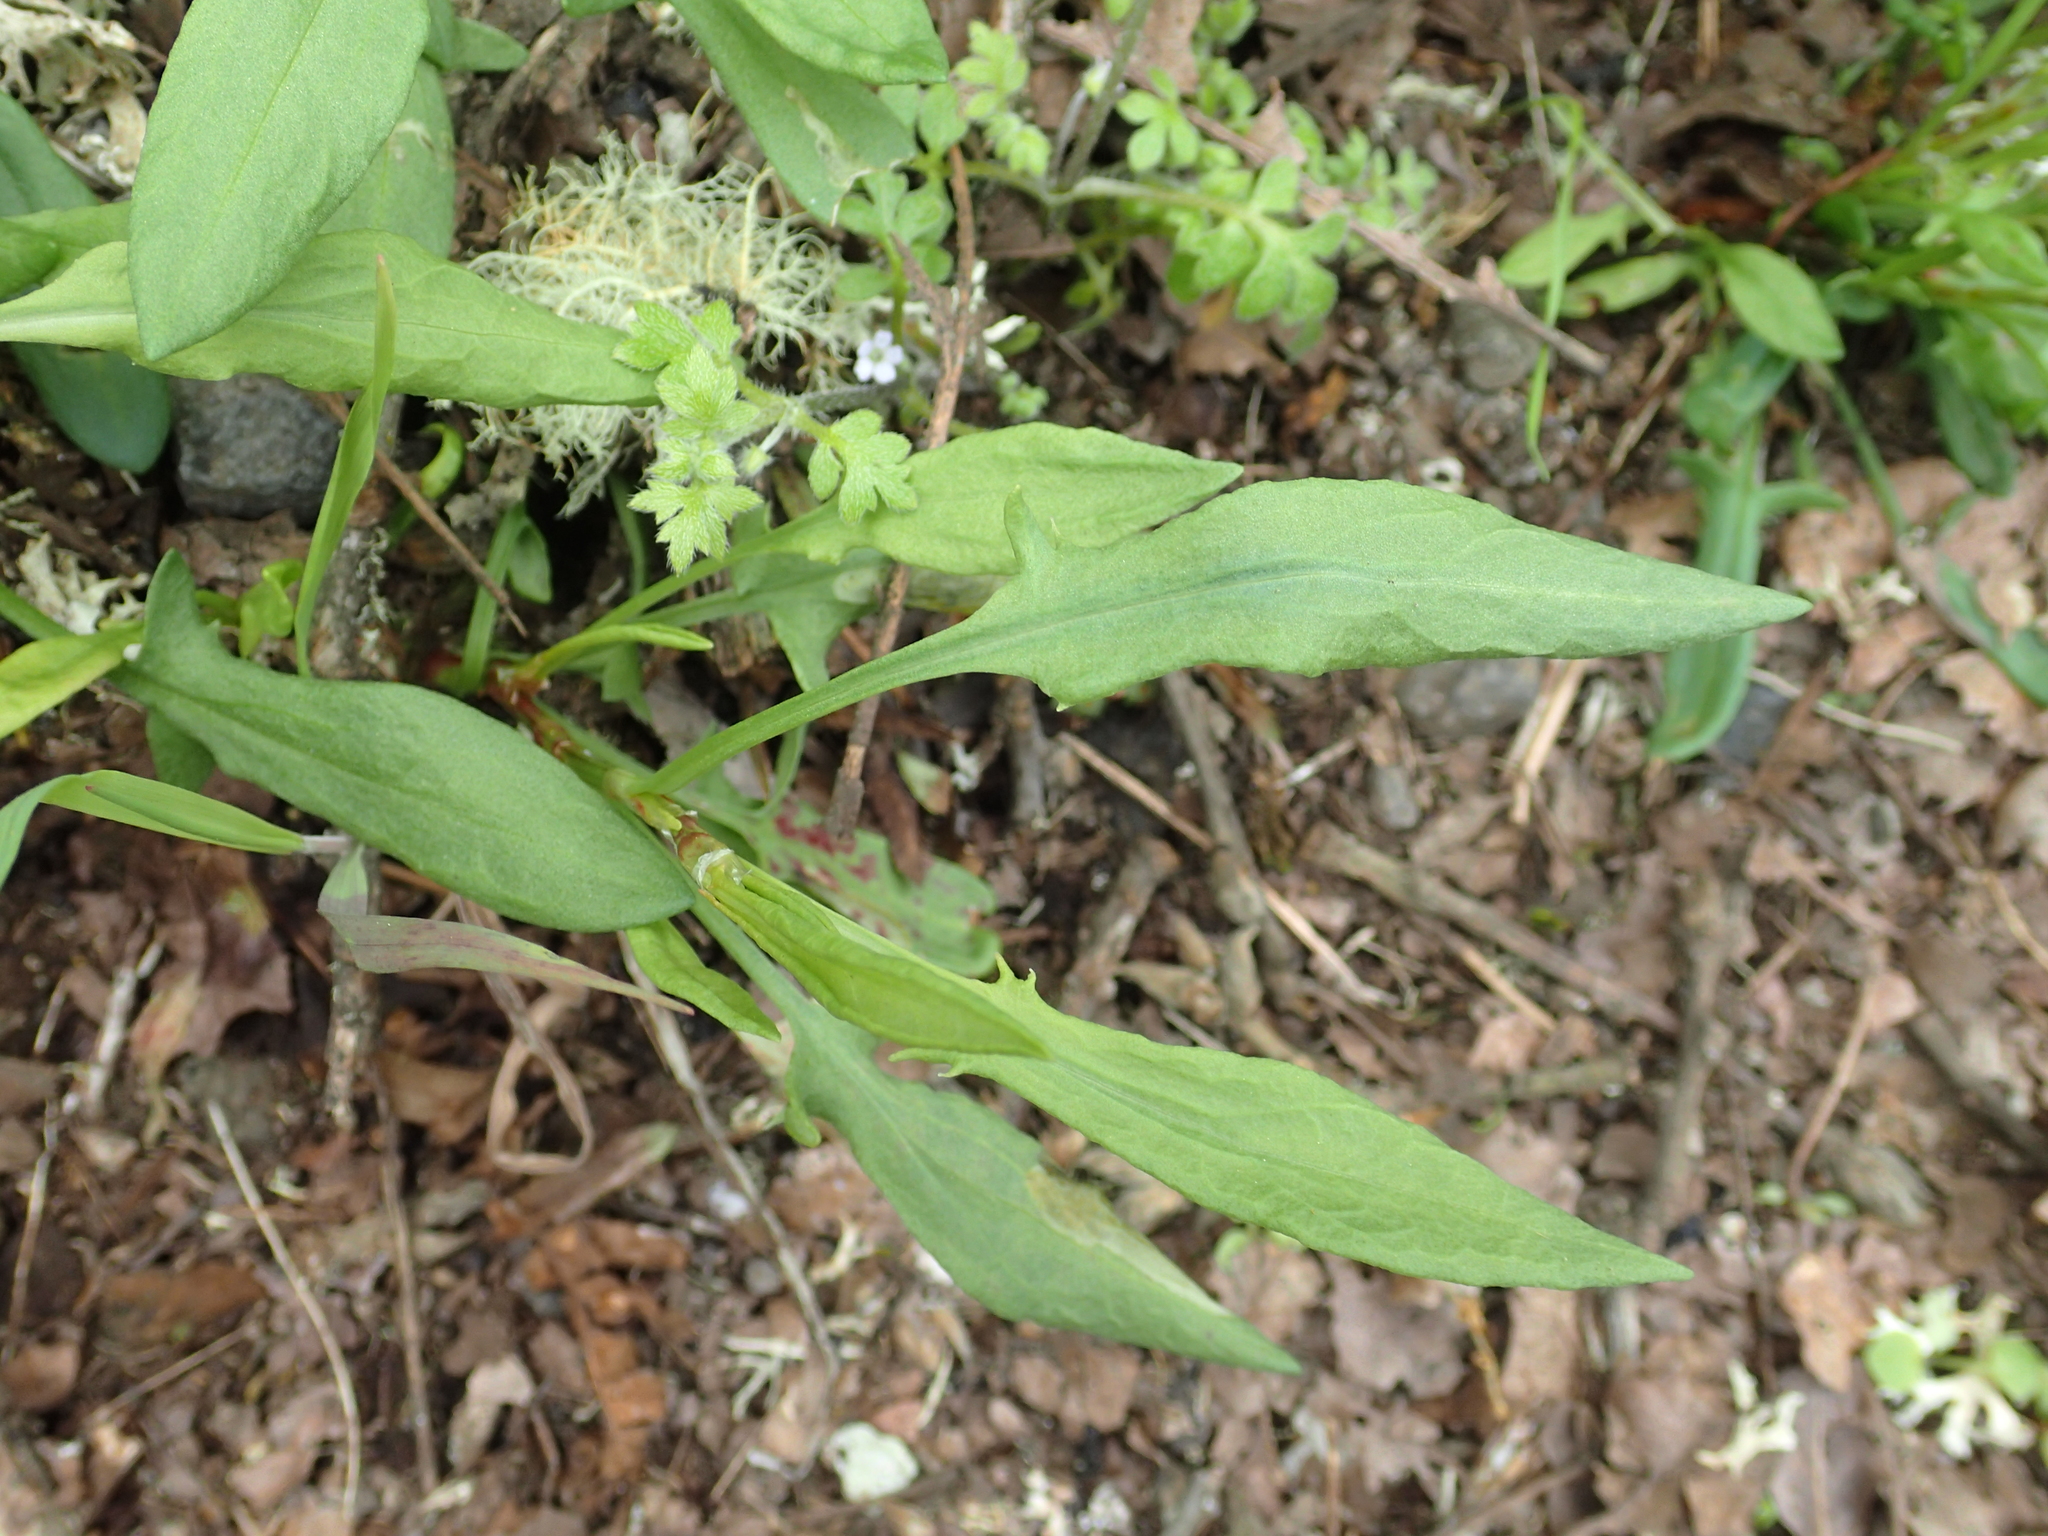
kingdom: Plantae
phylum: Tracheophyta
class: Magnoliopsida
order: Caryophyllales
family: Polygonaceae
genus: Rumex
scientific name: Rumex acetosella
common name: Common sheep sorrel
